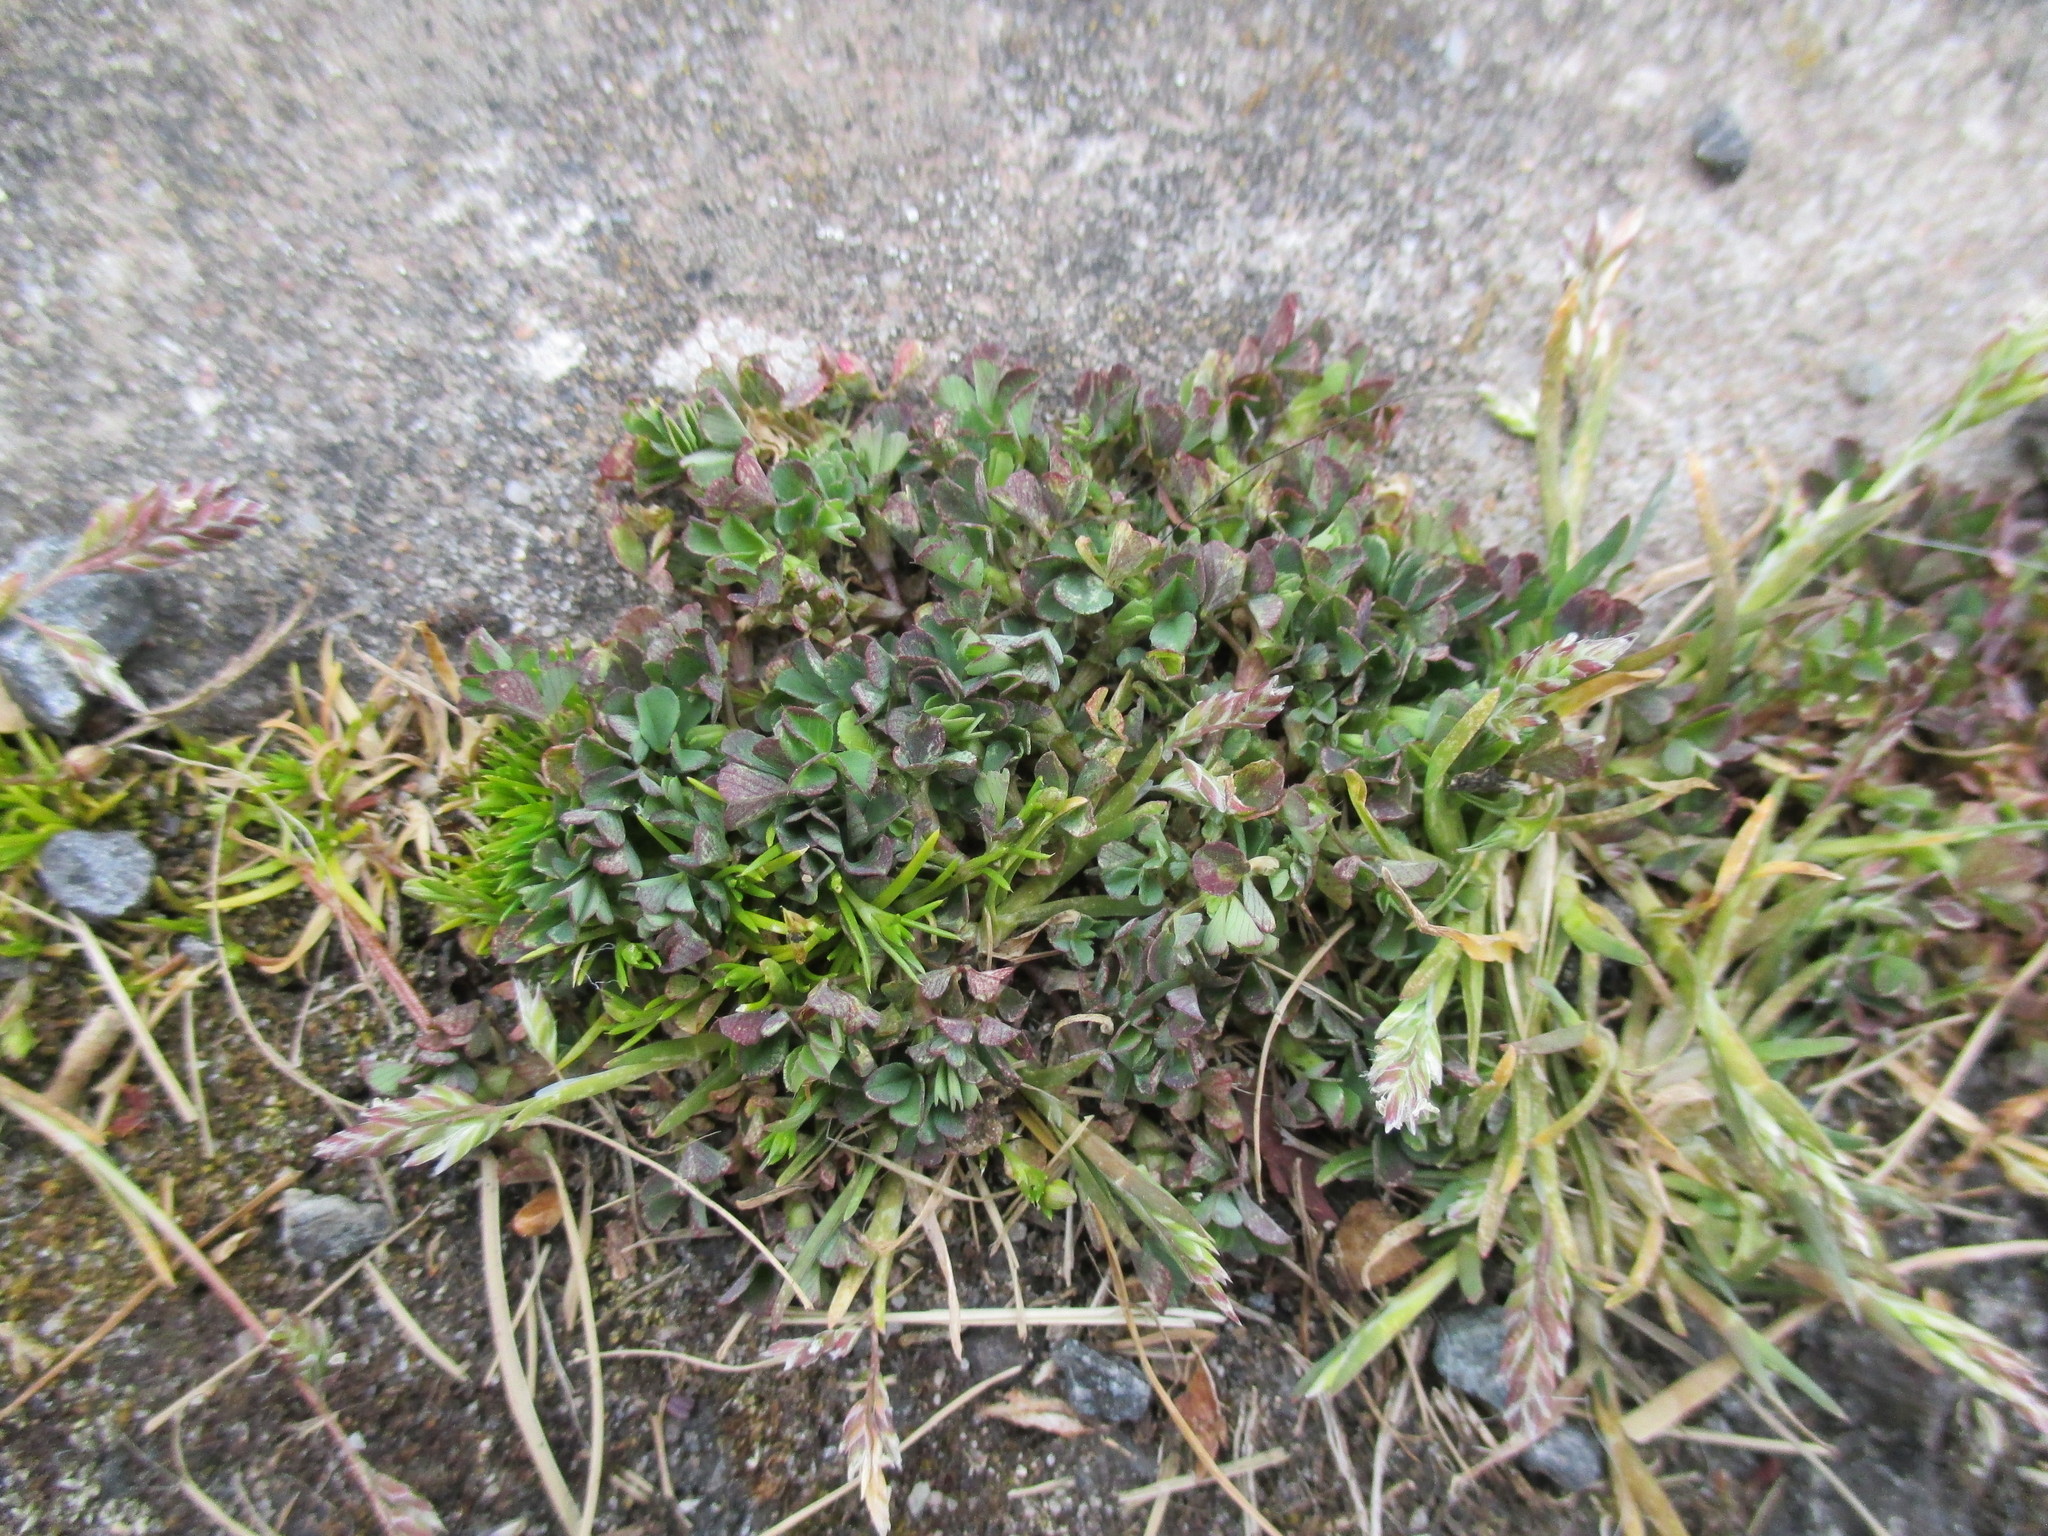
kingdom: Plantae
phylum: Tracheophyta
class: Magnoliopsida
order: Fabales
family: Fabaceae
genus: Trifolium
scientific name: Trifolium repens
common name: White clover
